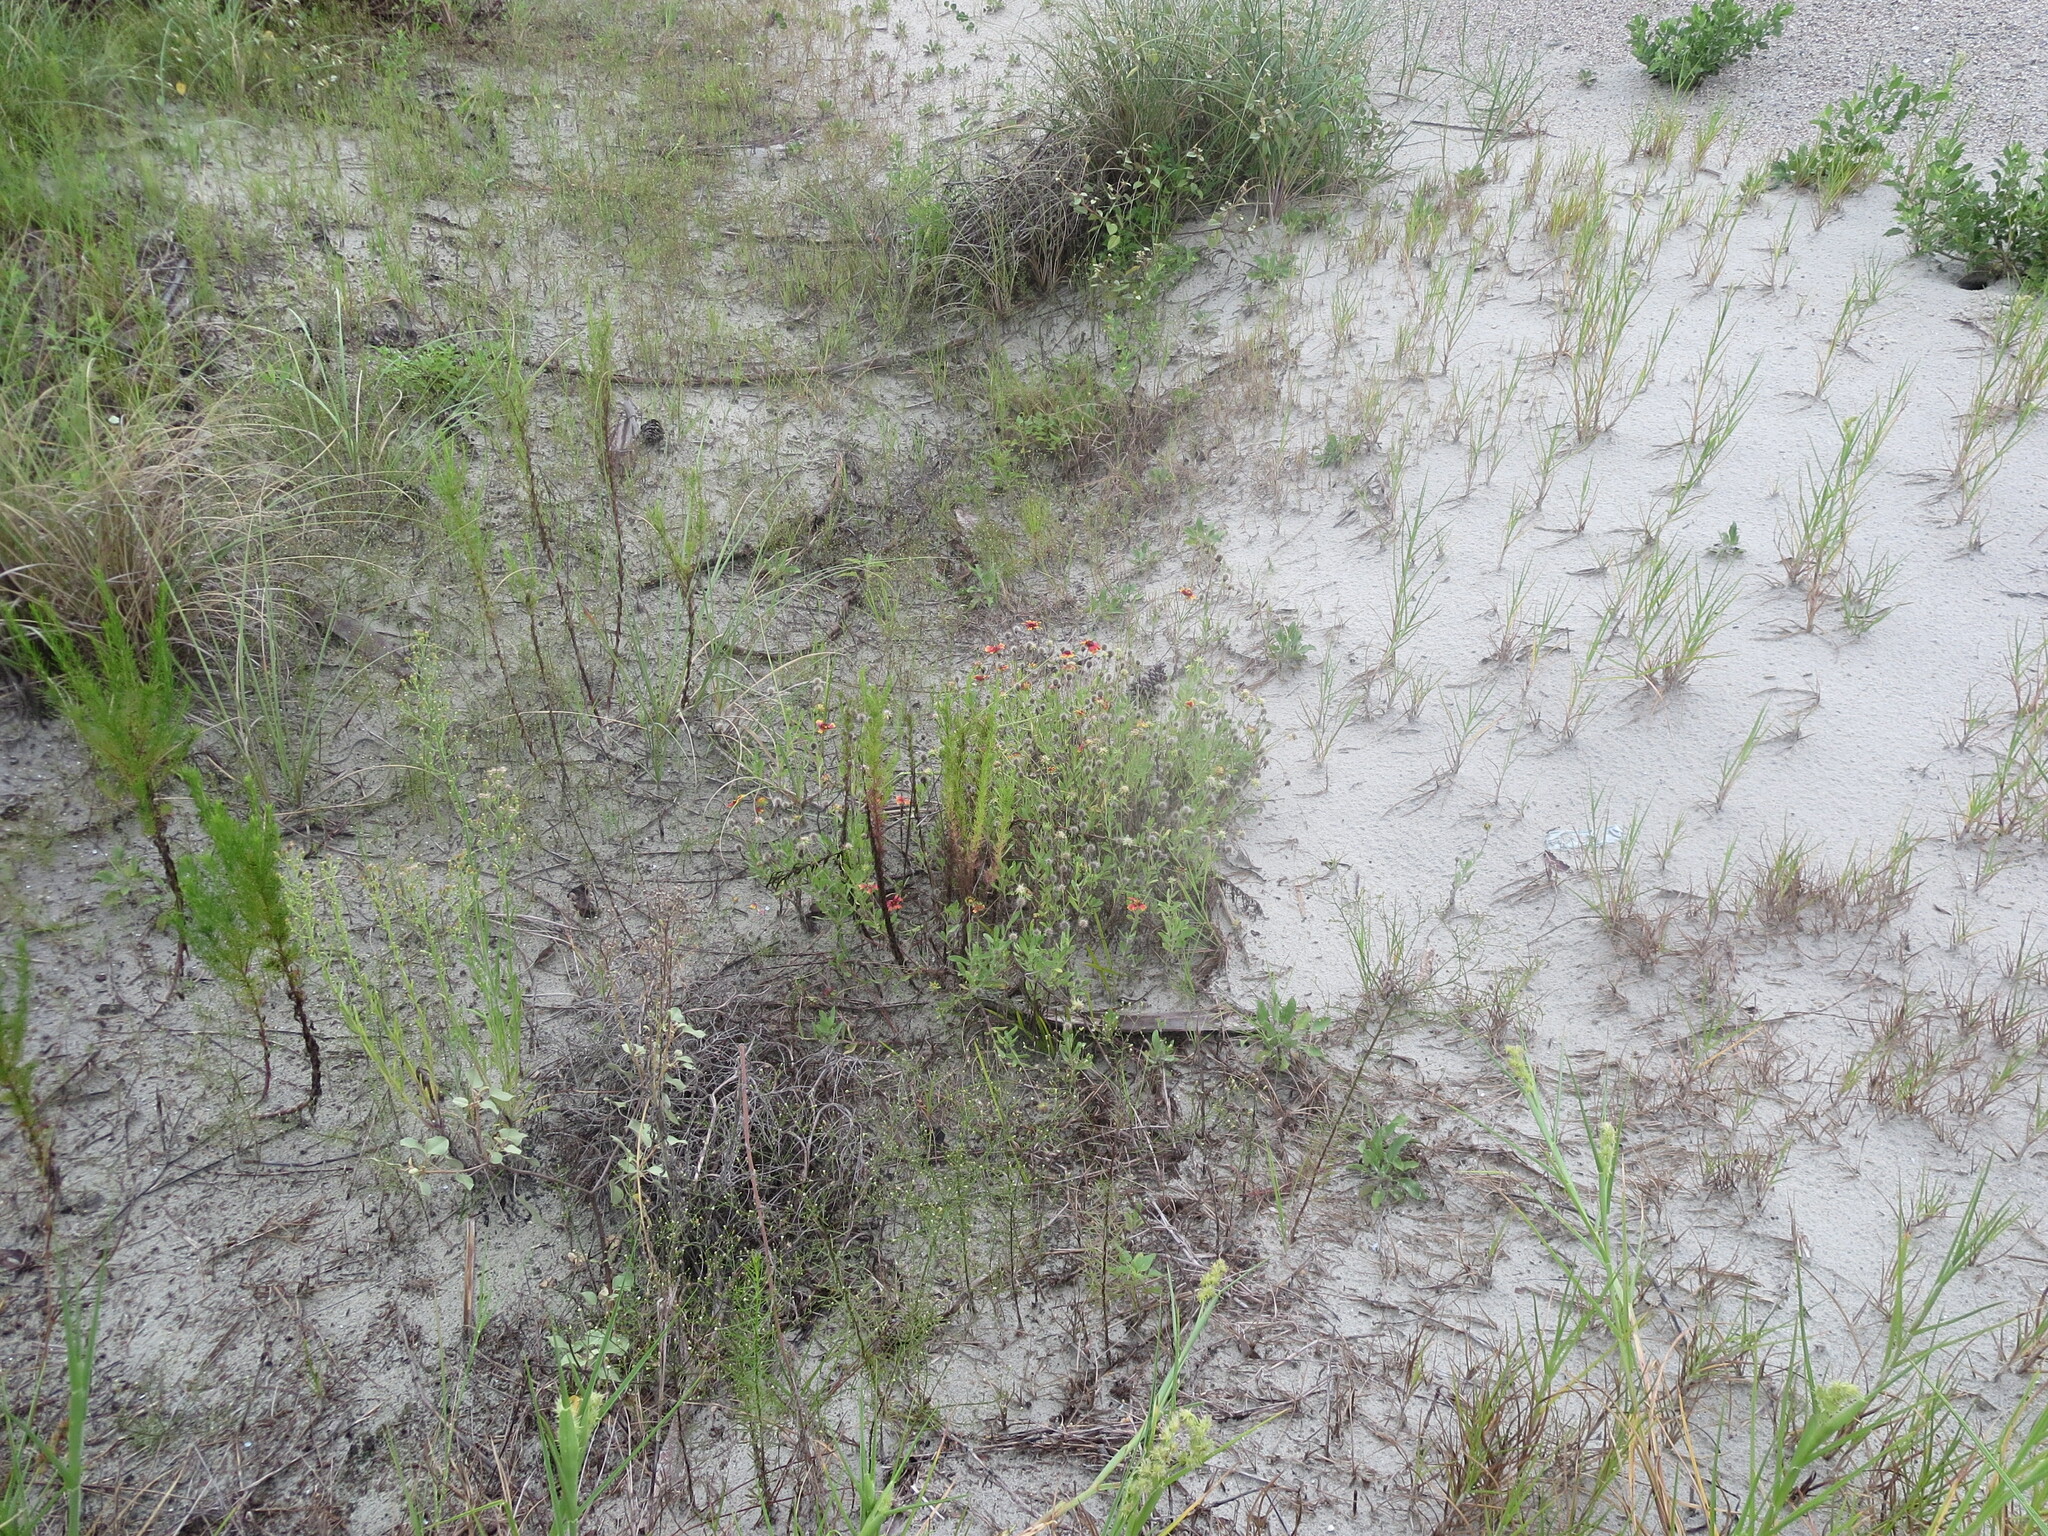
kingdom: Plantae
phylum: Tracheophyta
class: Magnoliopsida
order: Asterales
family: Asteraceae
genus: Gaillardia
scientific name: Gaillardia pulchella
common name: Firewheel
